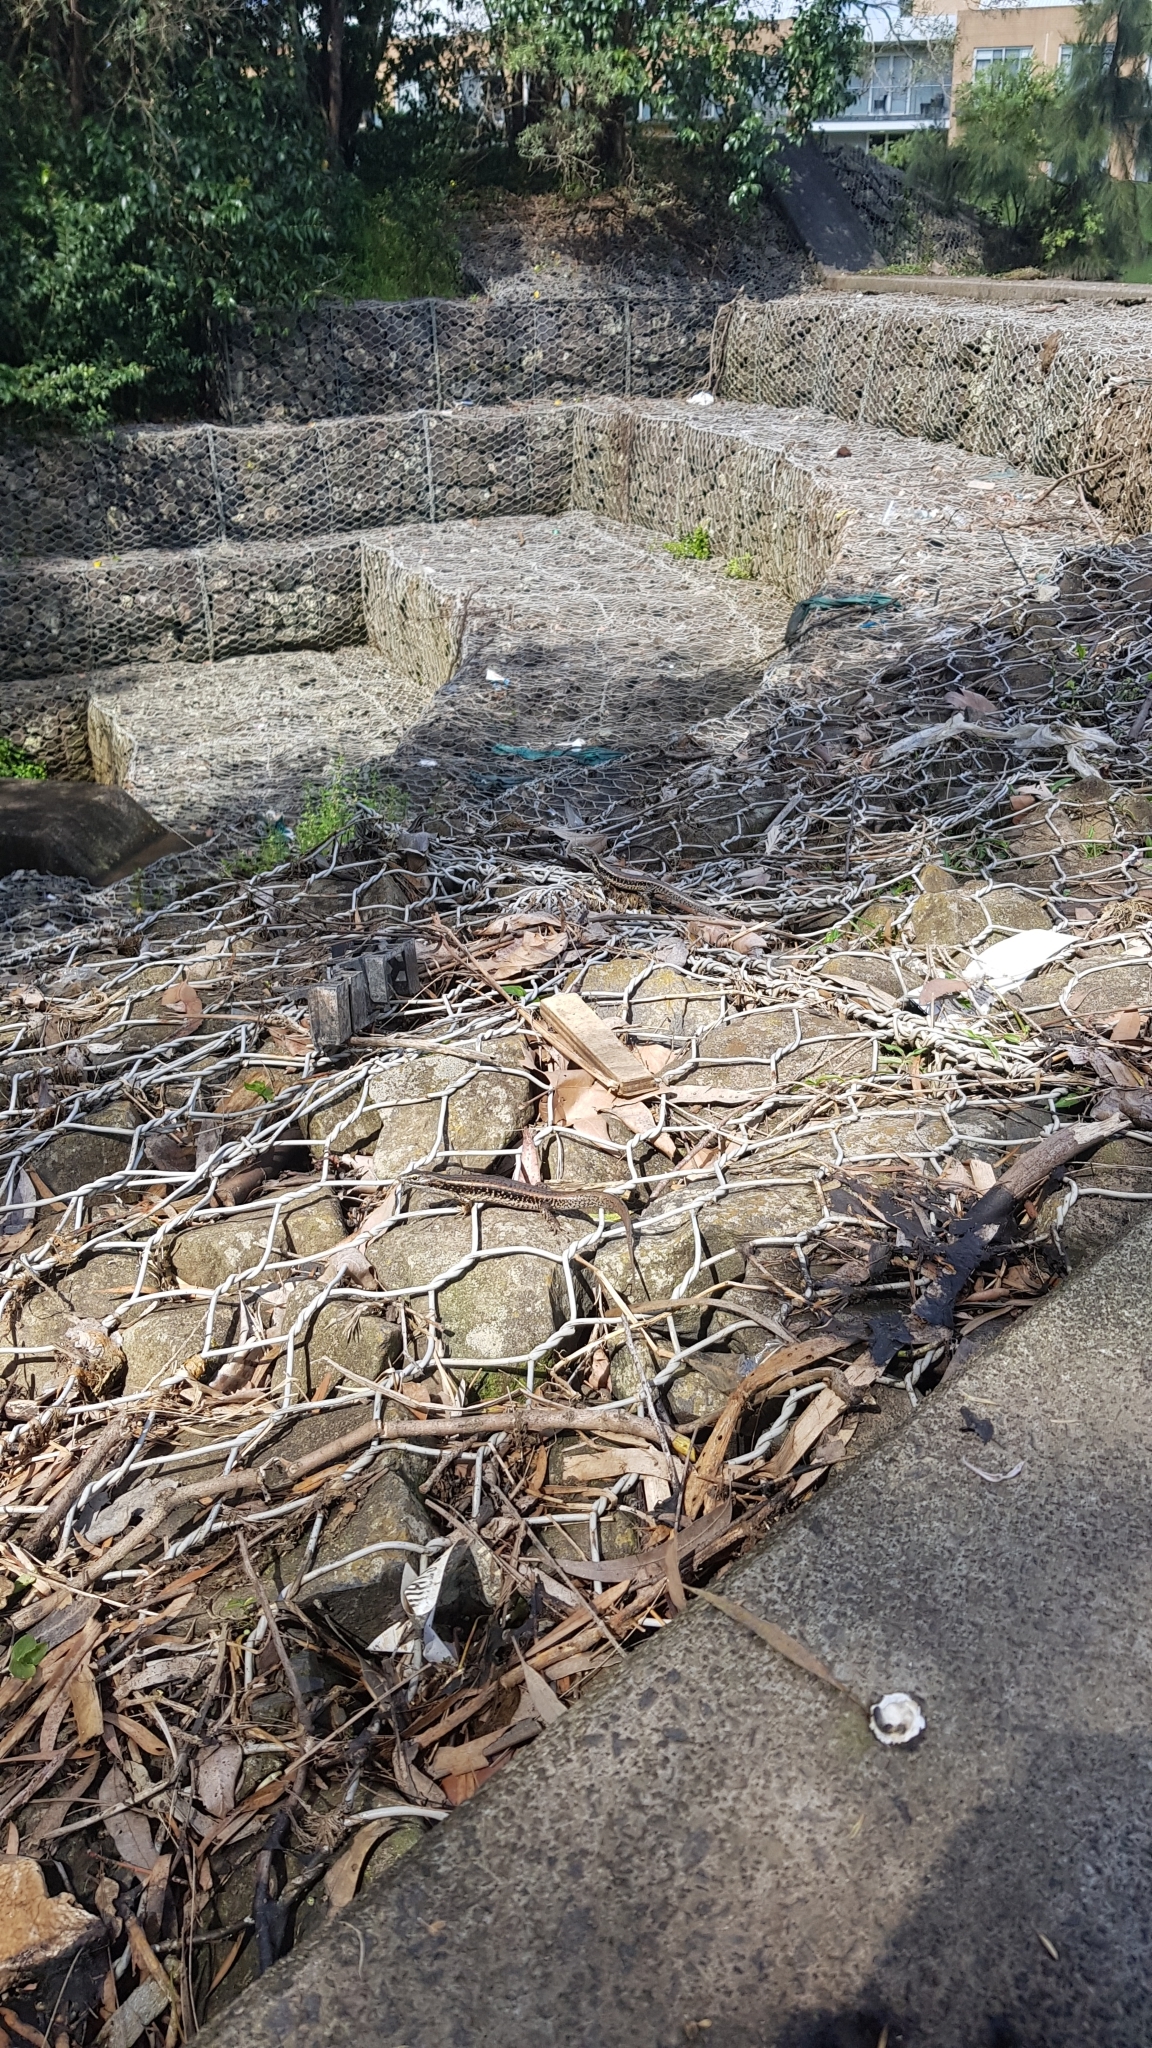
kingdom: Animalia
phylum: Chordata
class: Squamata
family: Scincidae
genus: Eulamprus
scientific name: Eulamprus quoyii
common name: Eastern water skink
